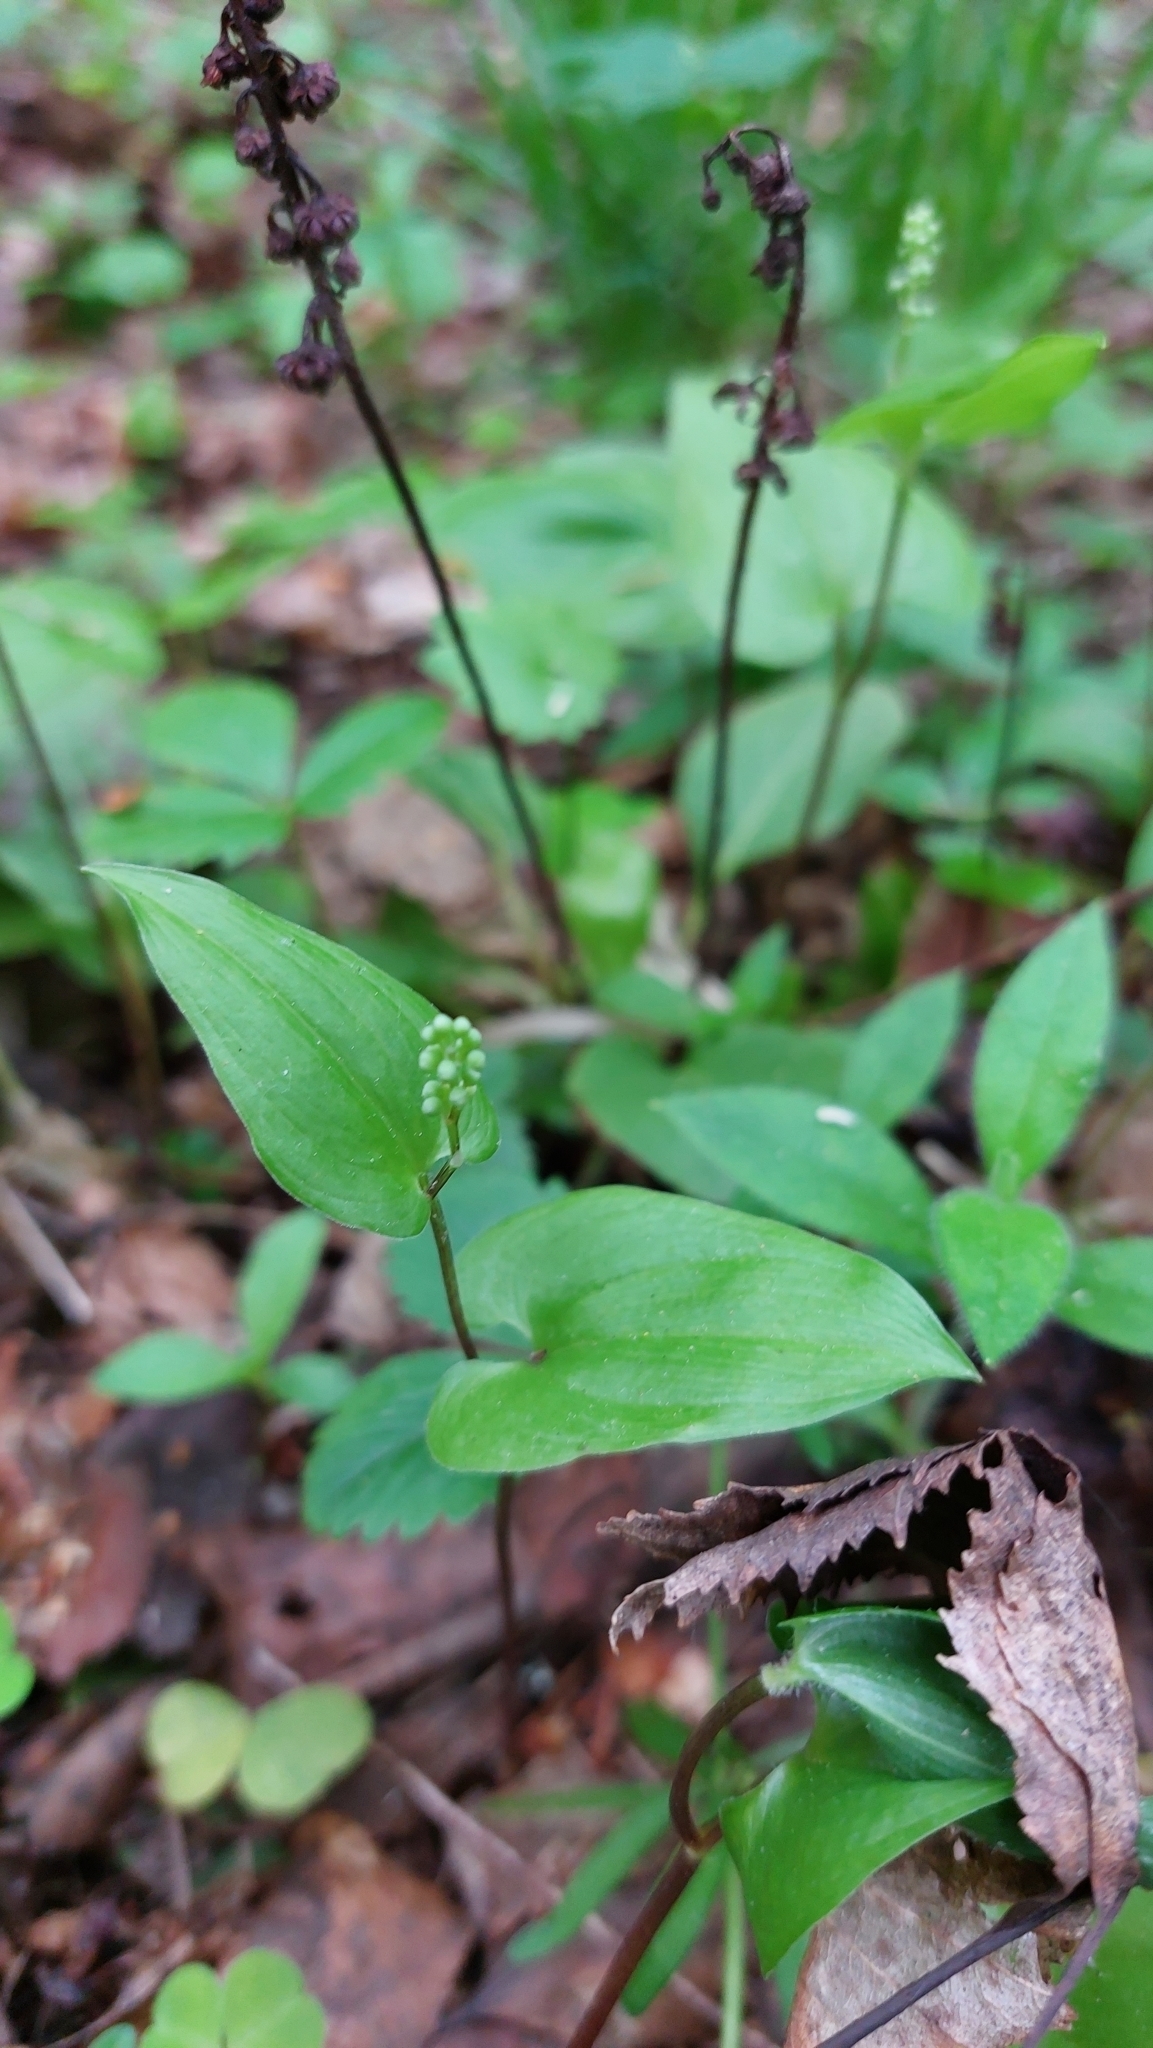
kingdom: Plantae
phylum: Tracheophyta
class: Liliopsida
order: Asparagales
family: Asparagaceae
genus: Maianthemum
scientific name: Maianthemum bifolium
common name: May lily
